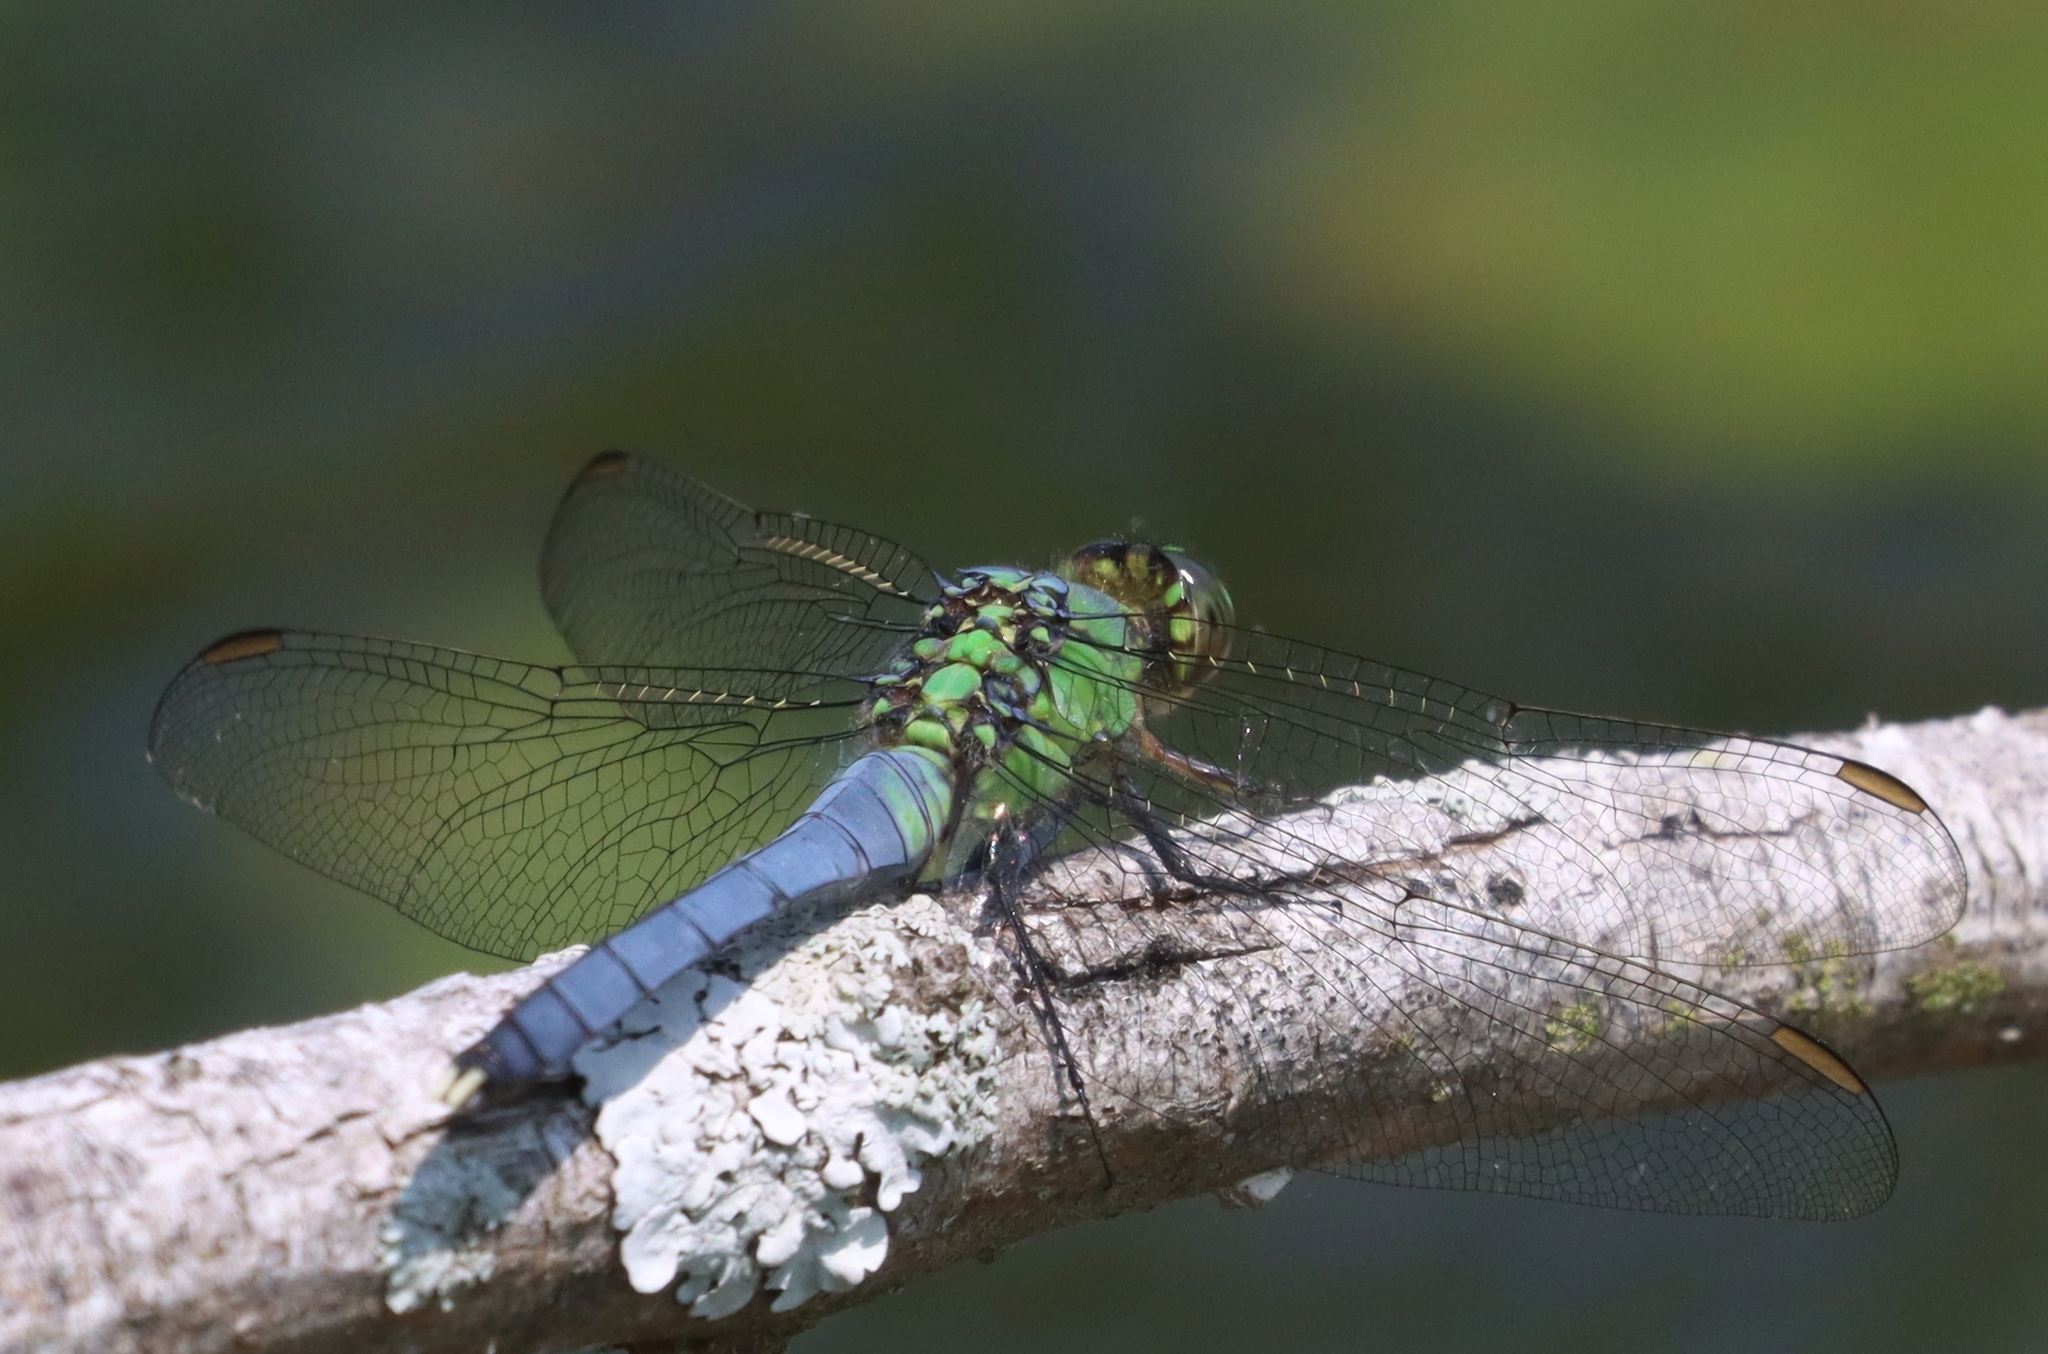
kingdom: Animalia
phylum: Arthropoda
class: Insecta
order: Odonata
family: Libellulidae
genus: Erythemis
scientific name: Erythemis simplicicollis
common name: Eastern pondhawk
